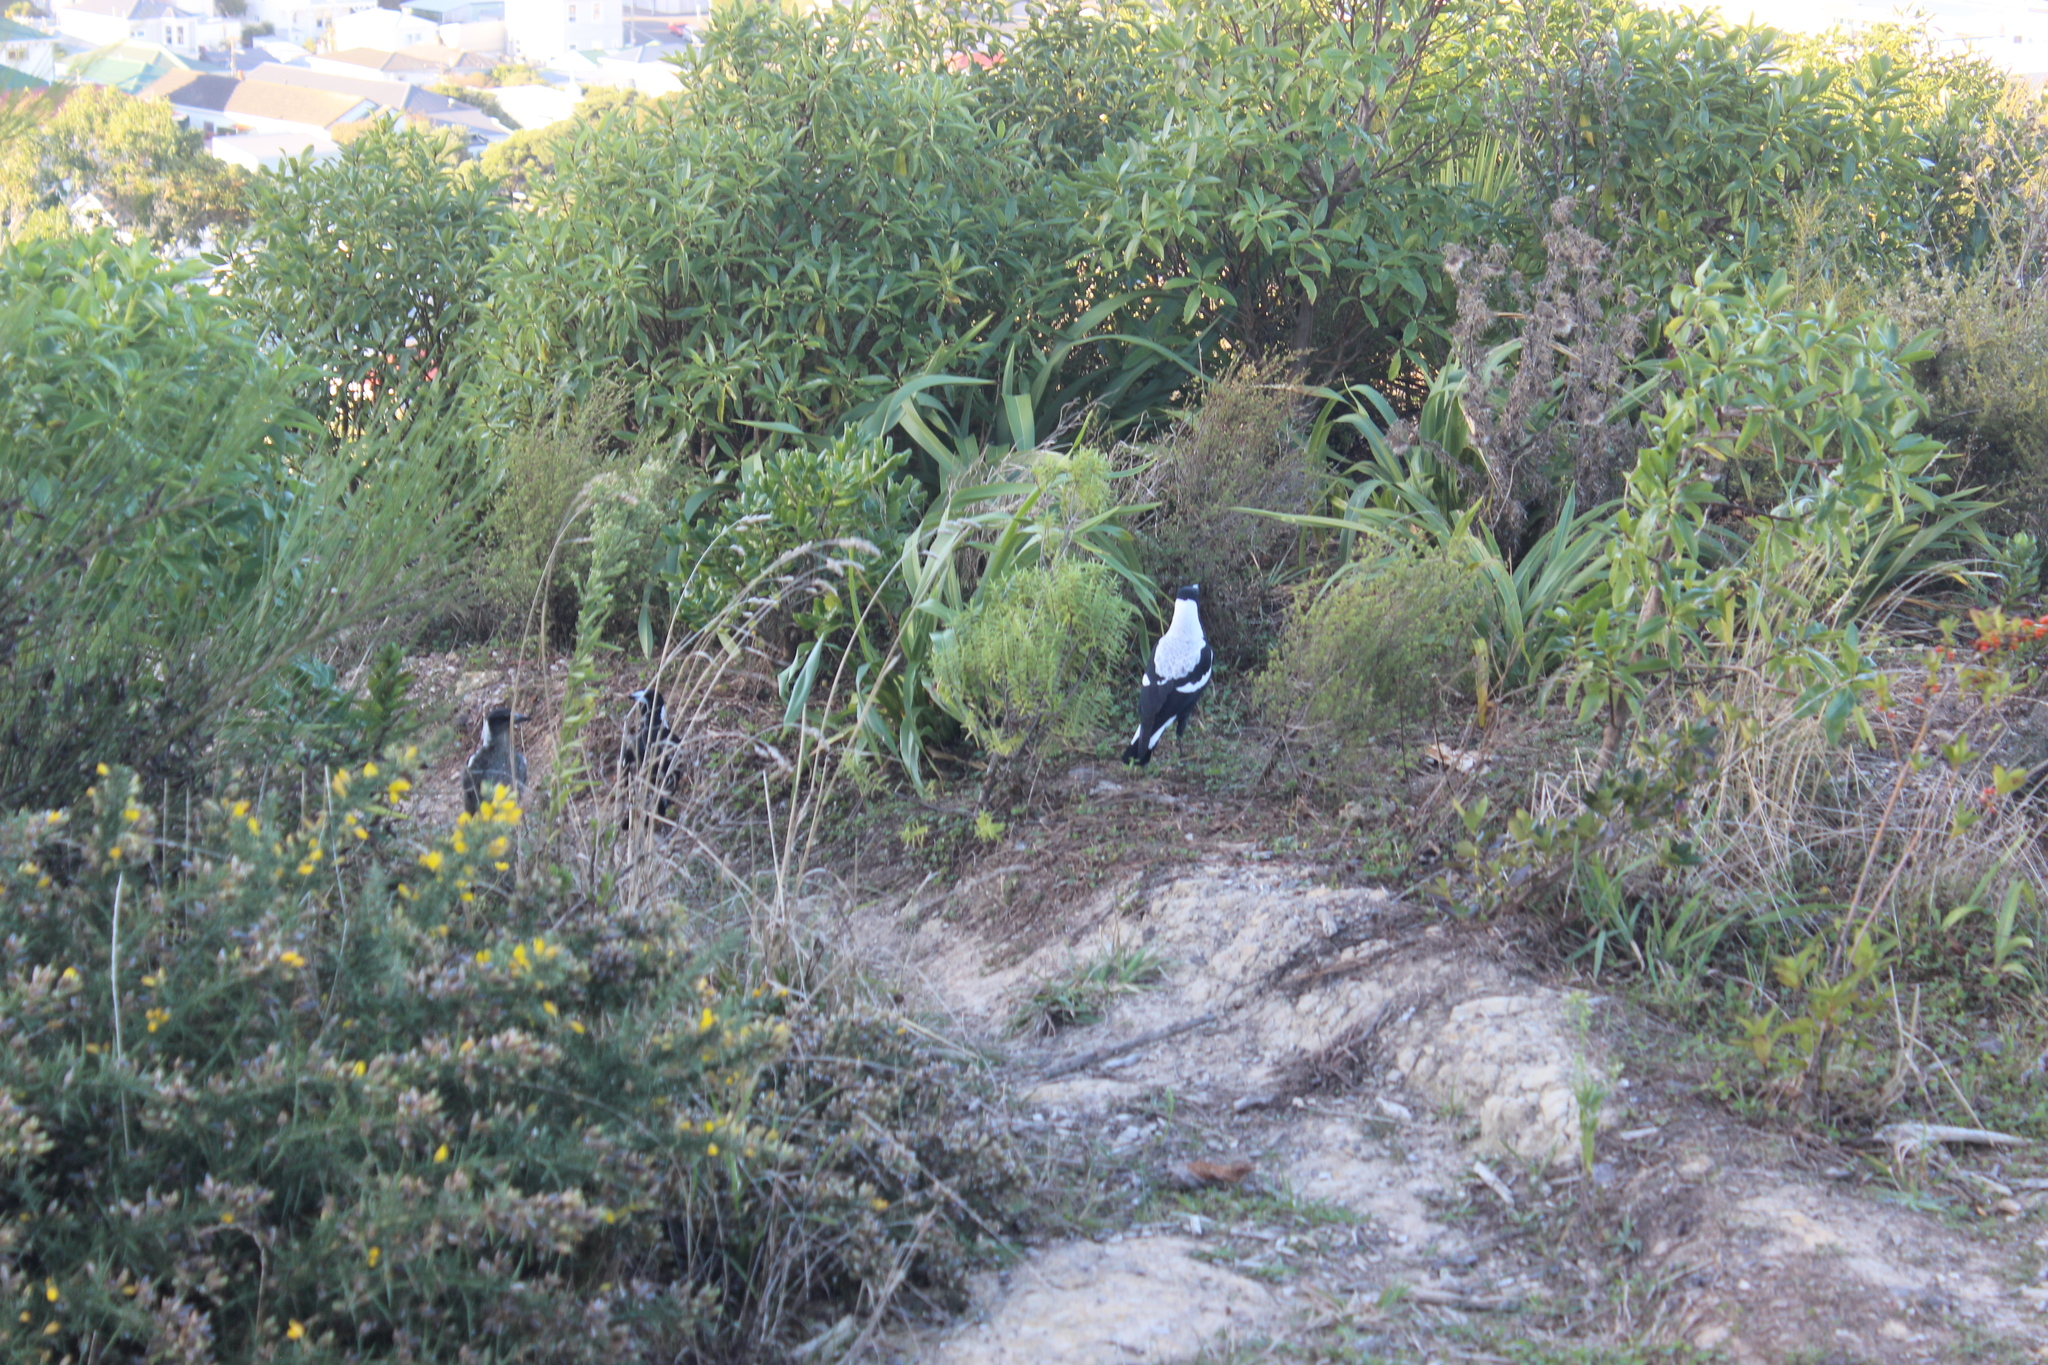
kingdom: Animalia
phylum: Chordata
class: Aves
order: Passeriformes
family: Cracticidae
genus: Gymnorhina
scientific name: Gymnorhina tibicen
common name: Australian magpie
